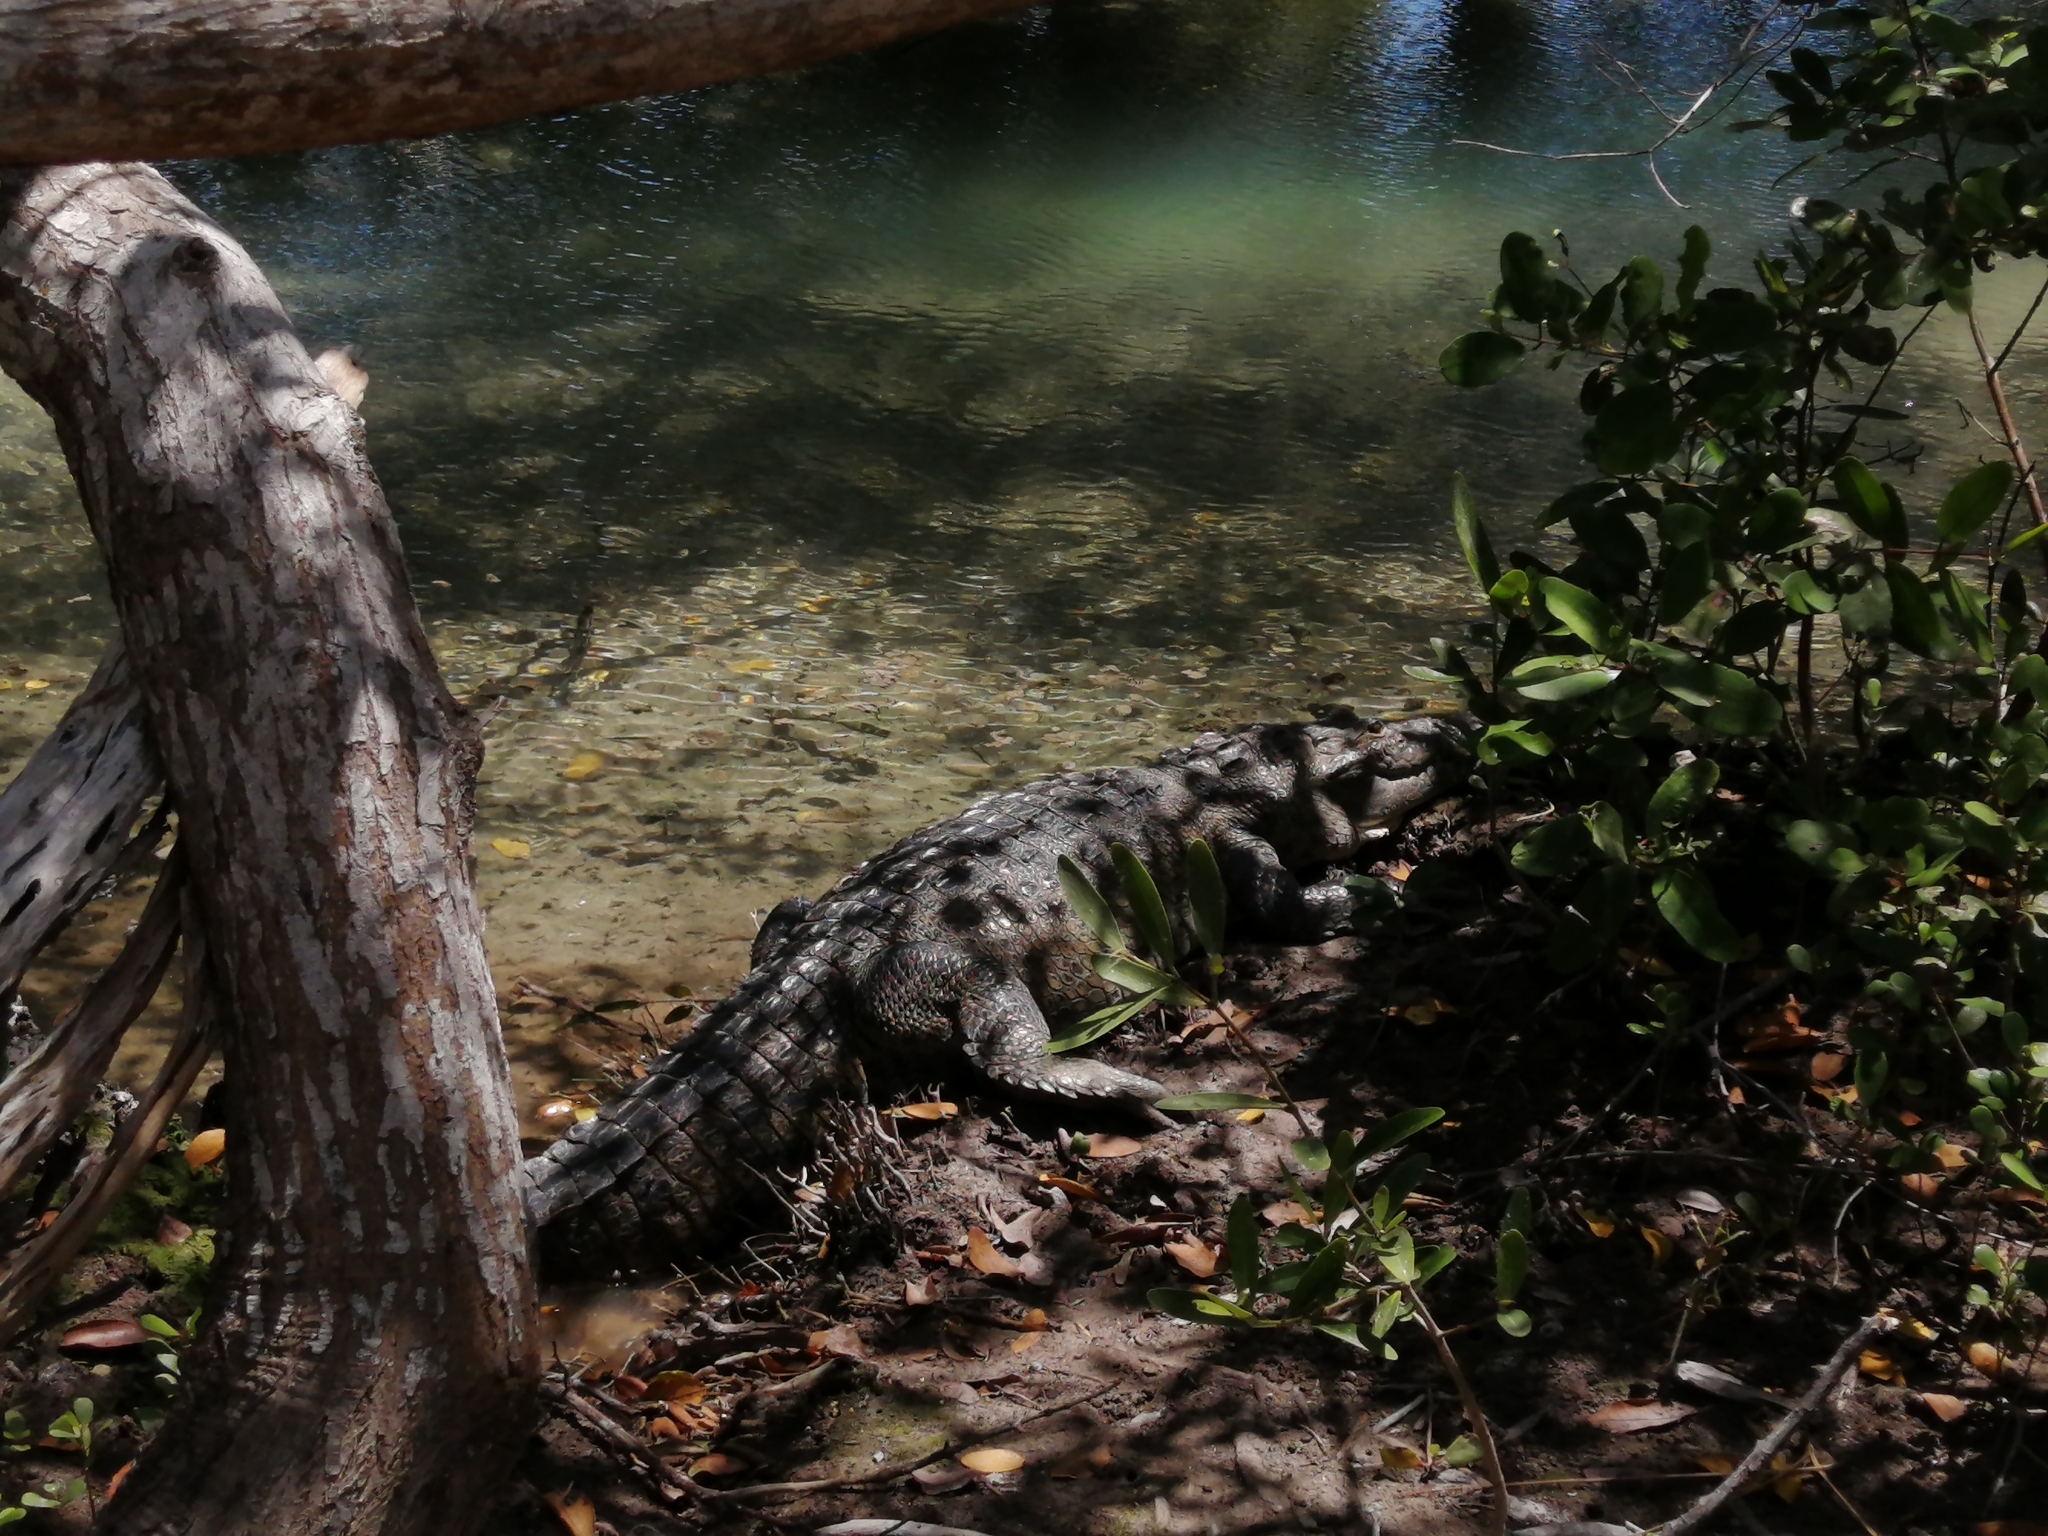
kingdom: Animalia
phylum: Chordata
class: Crocodylia
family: Crocodylidae
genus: Crocodylus
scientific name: Crocodylus moreletii
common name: Morelet's crocodile
